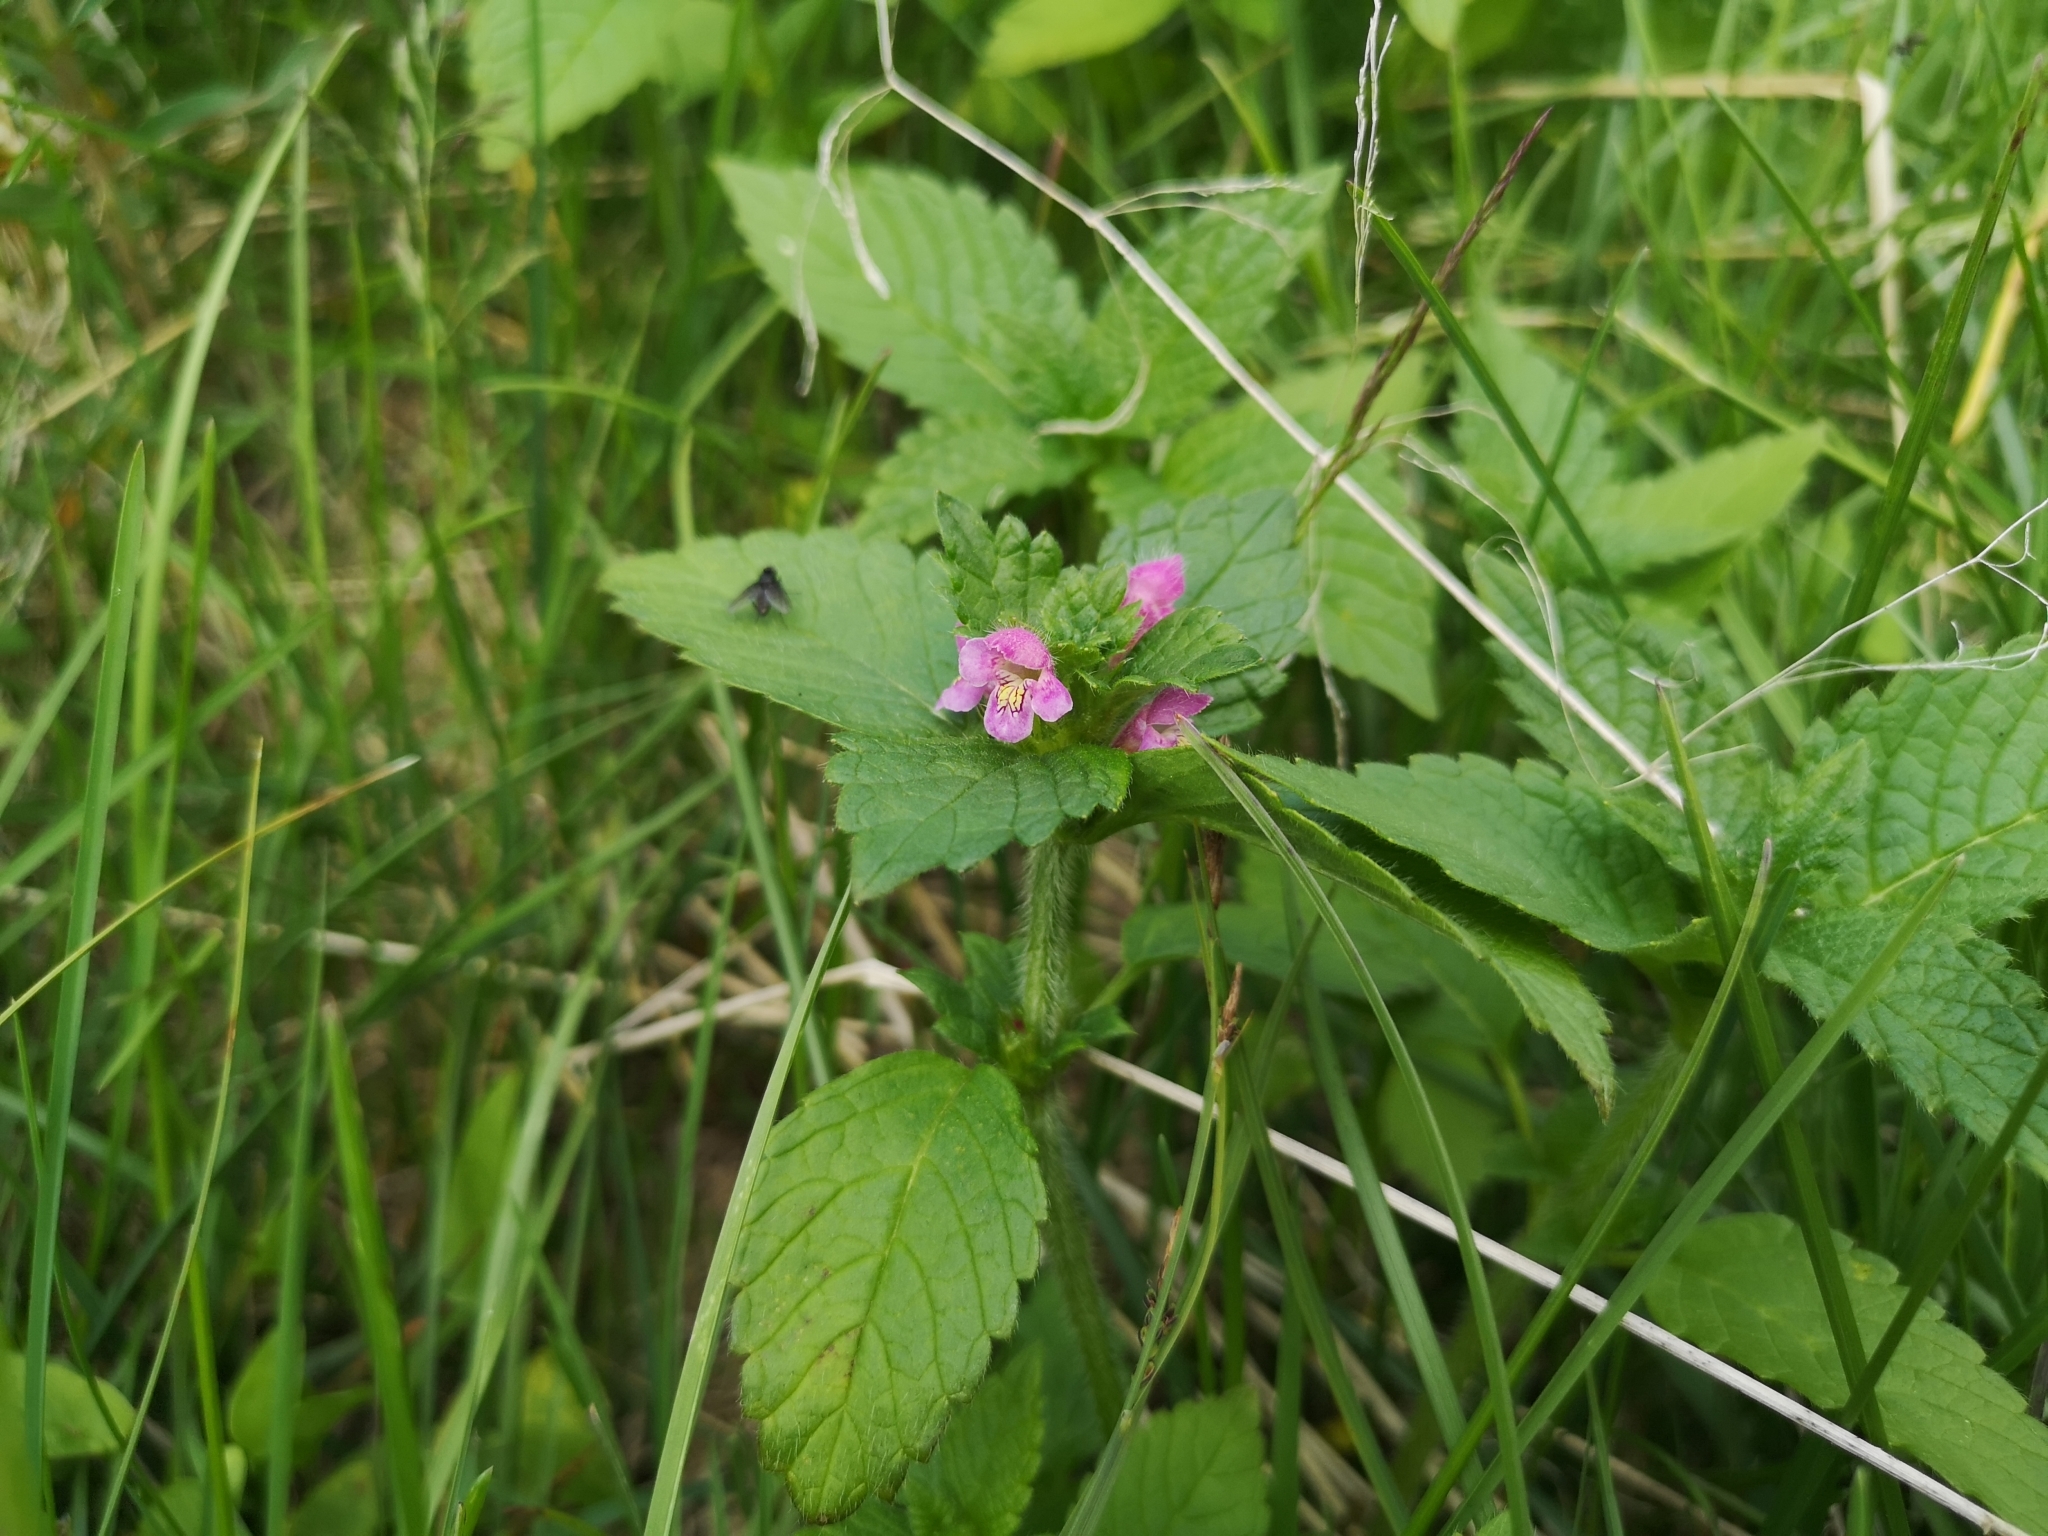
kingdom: Plantae
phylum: Tracheophyta
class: Magnoliopsida
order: Lamiales
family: Lamiaceae
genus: Galeopsis
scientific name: Galeopsis tetrahit
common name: Common hemp-nettle
